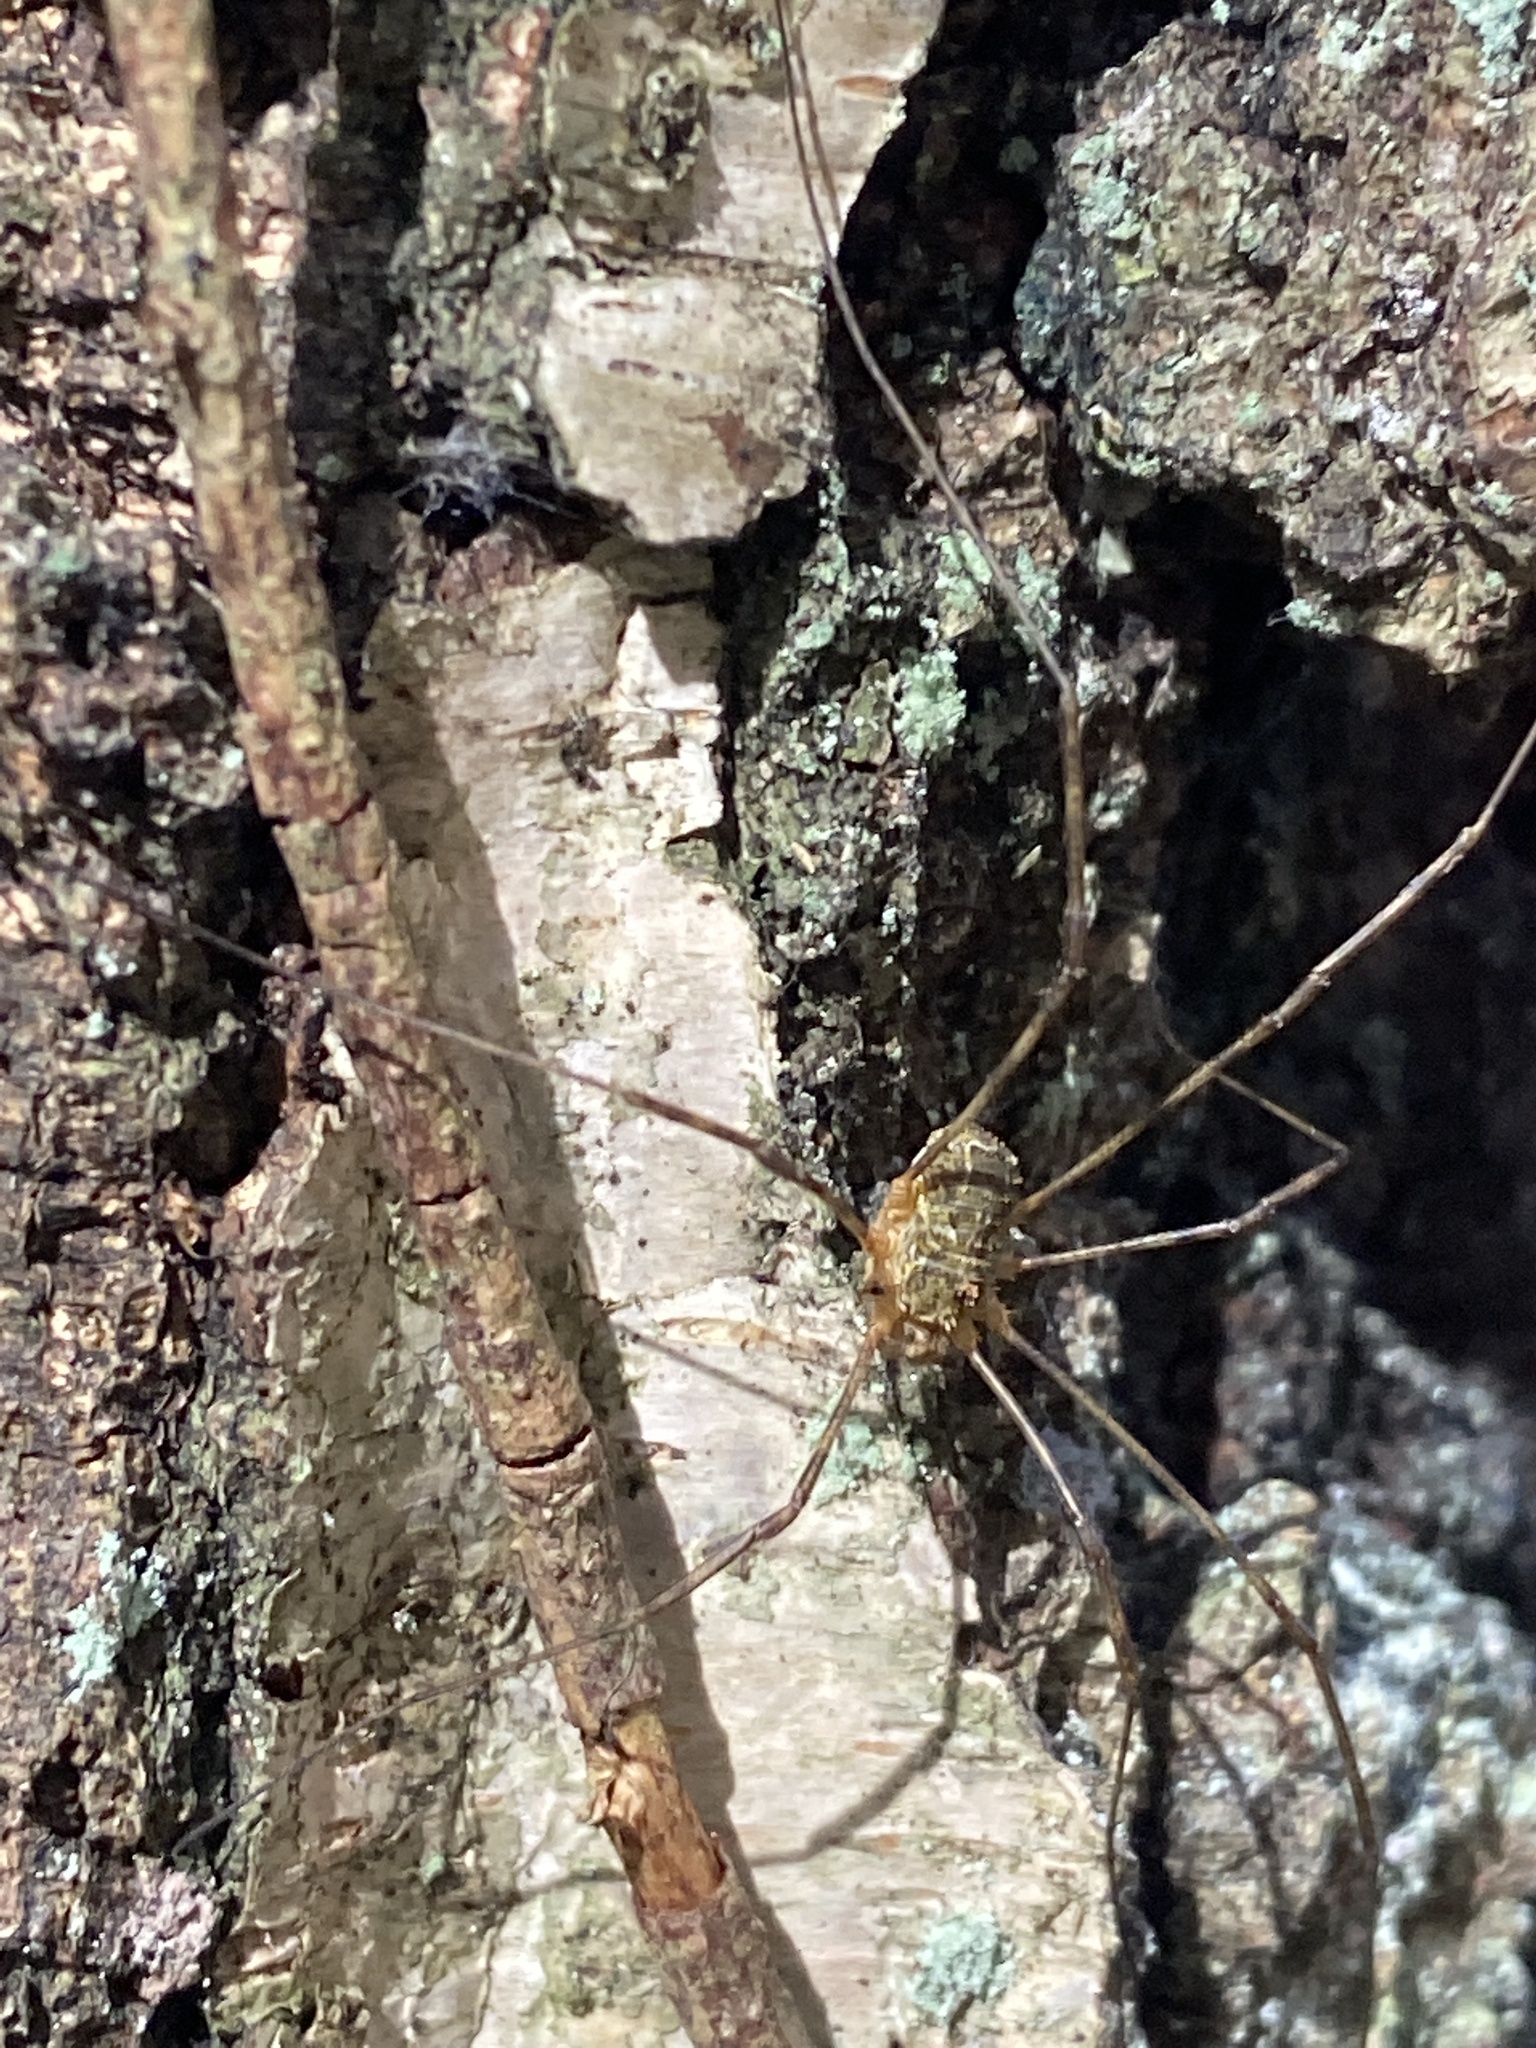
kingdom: Animalia
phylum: Arthropoda
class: Arachnida
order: Opiliones
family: Phalangiidae
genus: Lacinius
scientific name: Lacinius dentiger
